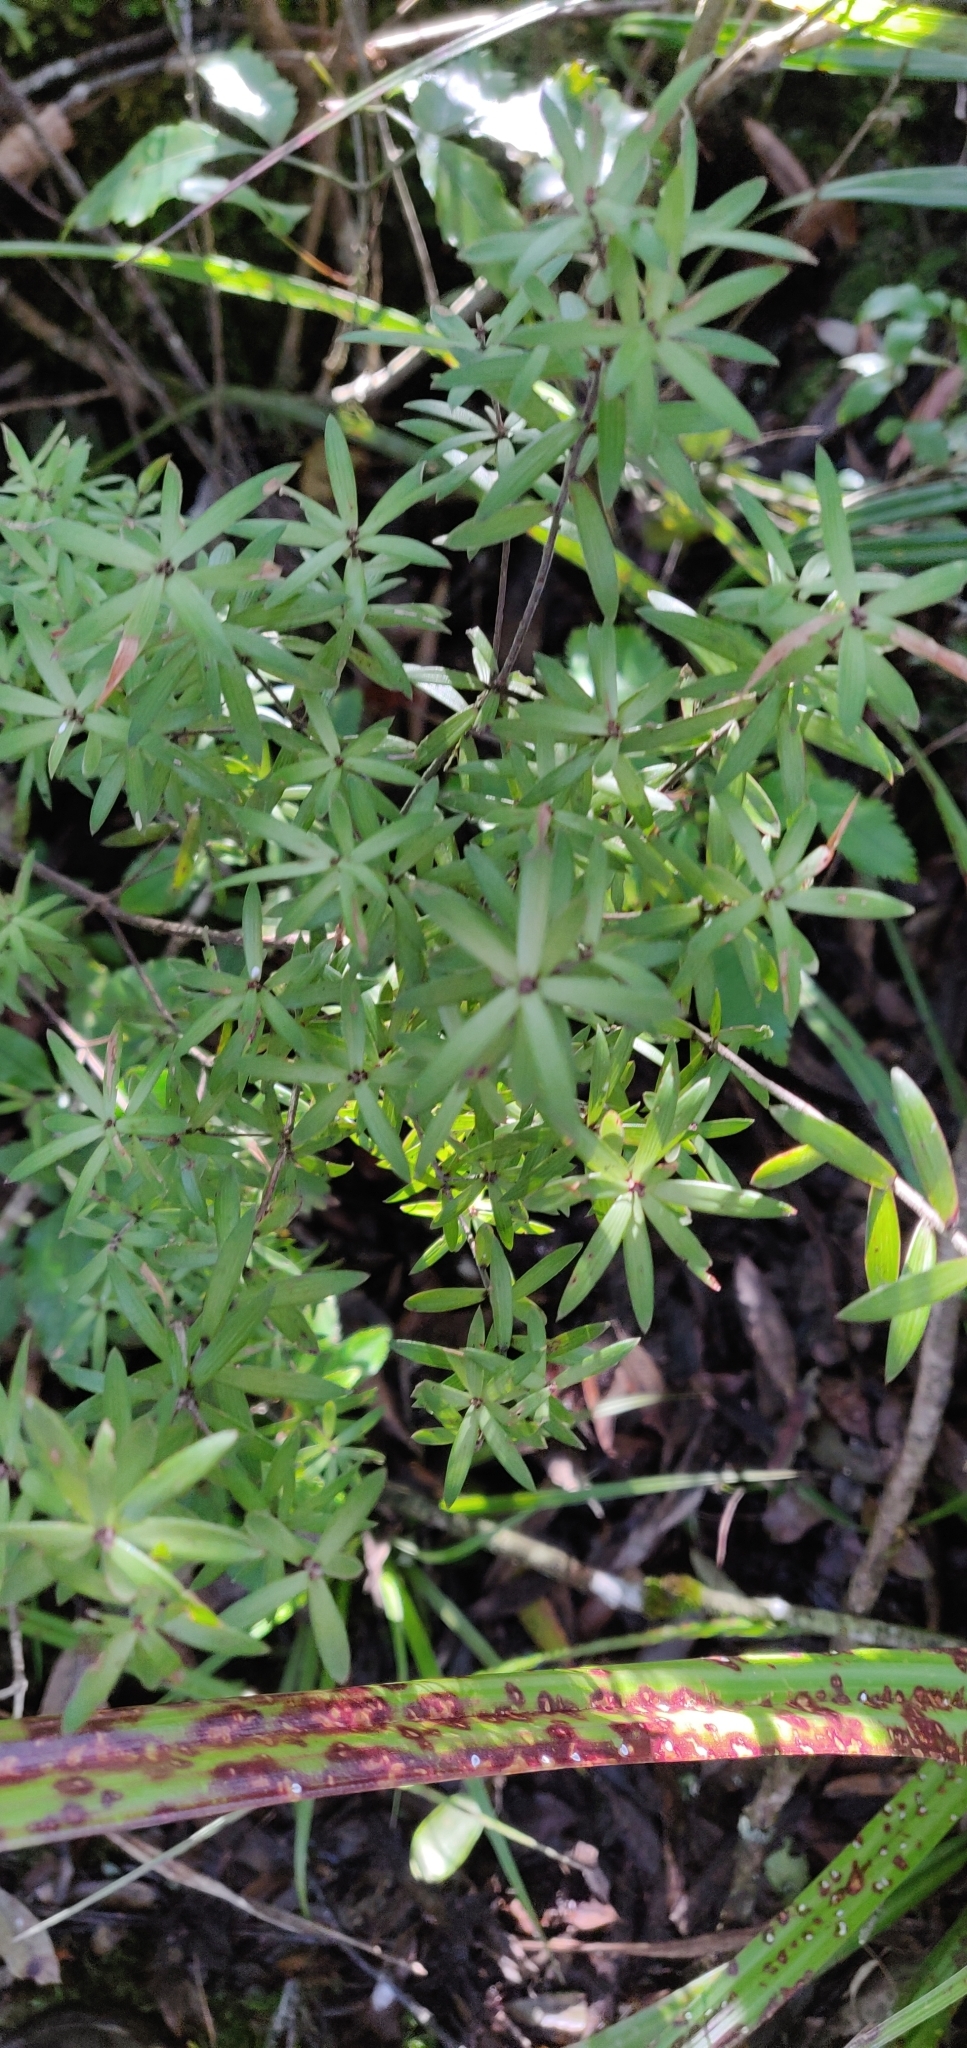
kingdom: Plantae
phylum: Tracheophyta
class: Magnoliopsida
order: Ericales
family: Ericaceae
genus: Leucopogon
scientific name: Leucopogon fasciculatus
